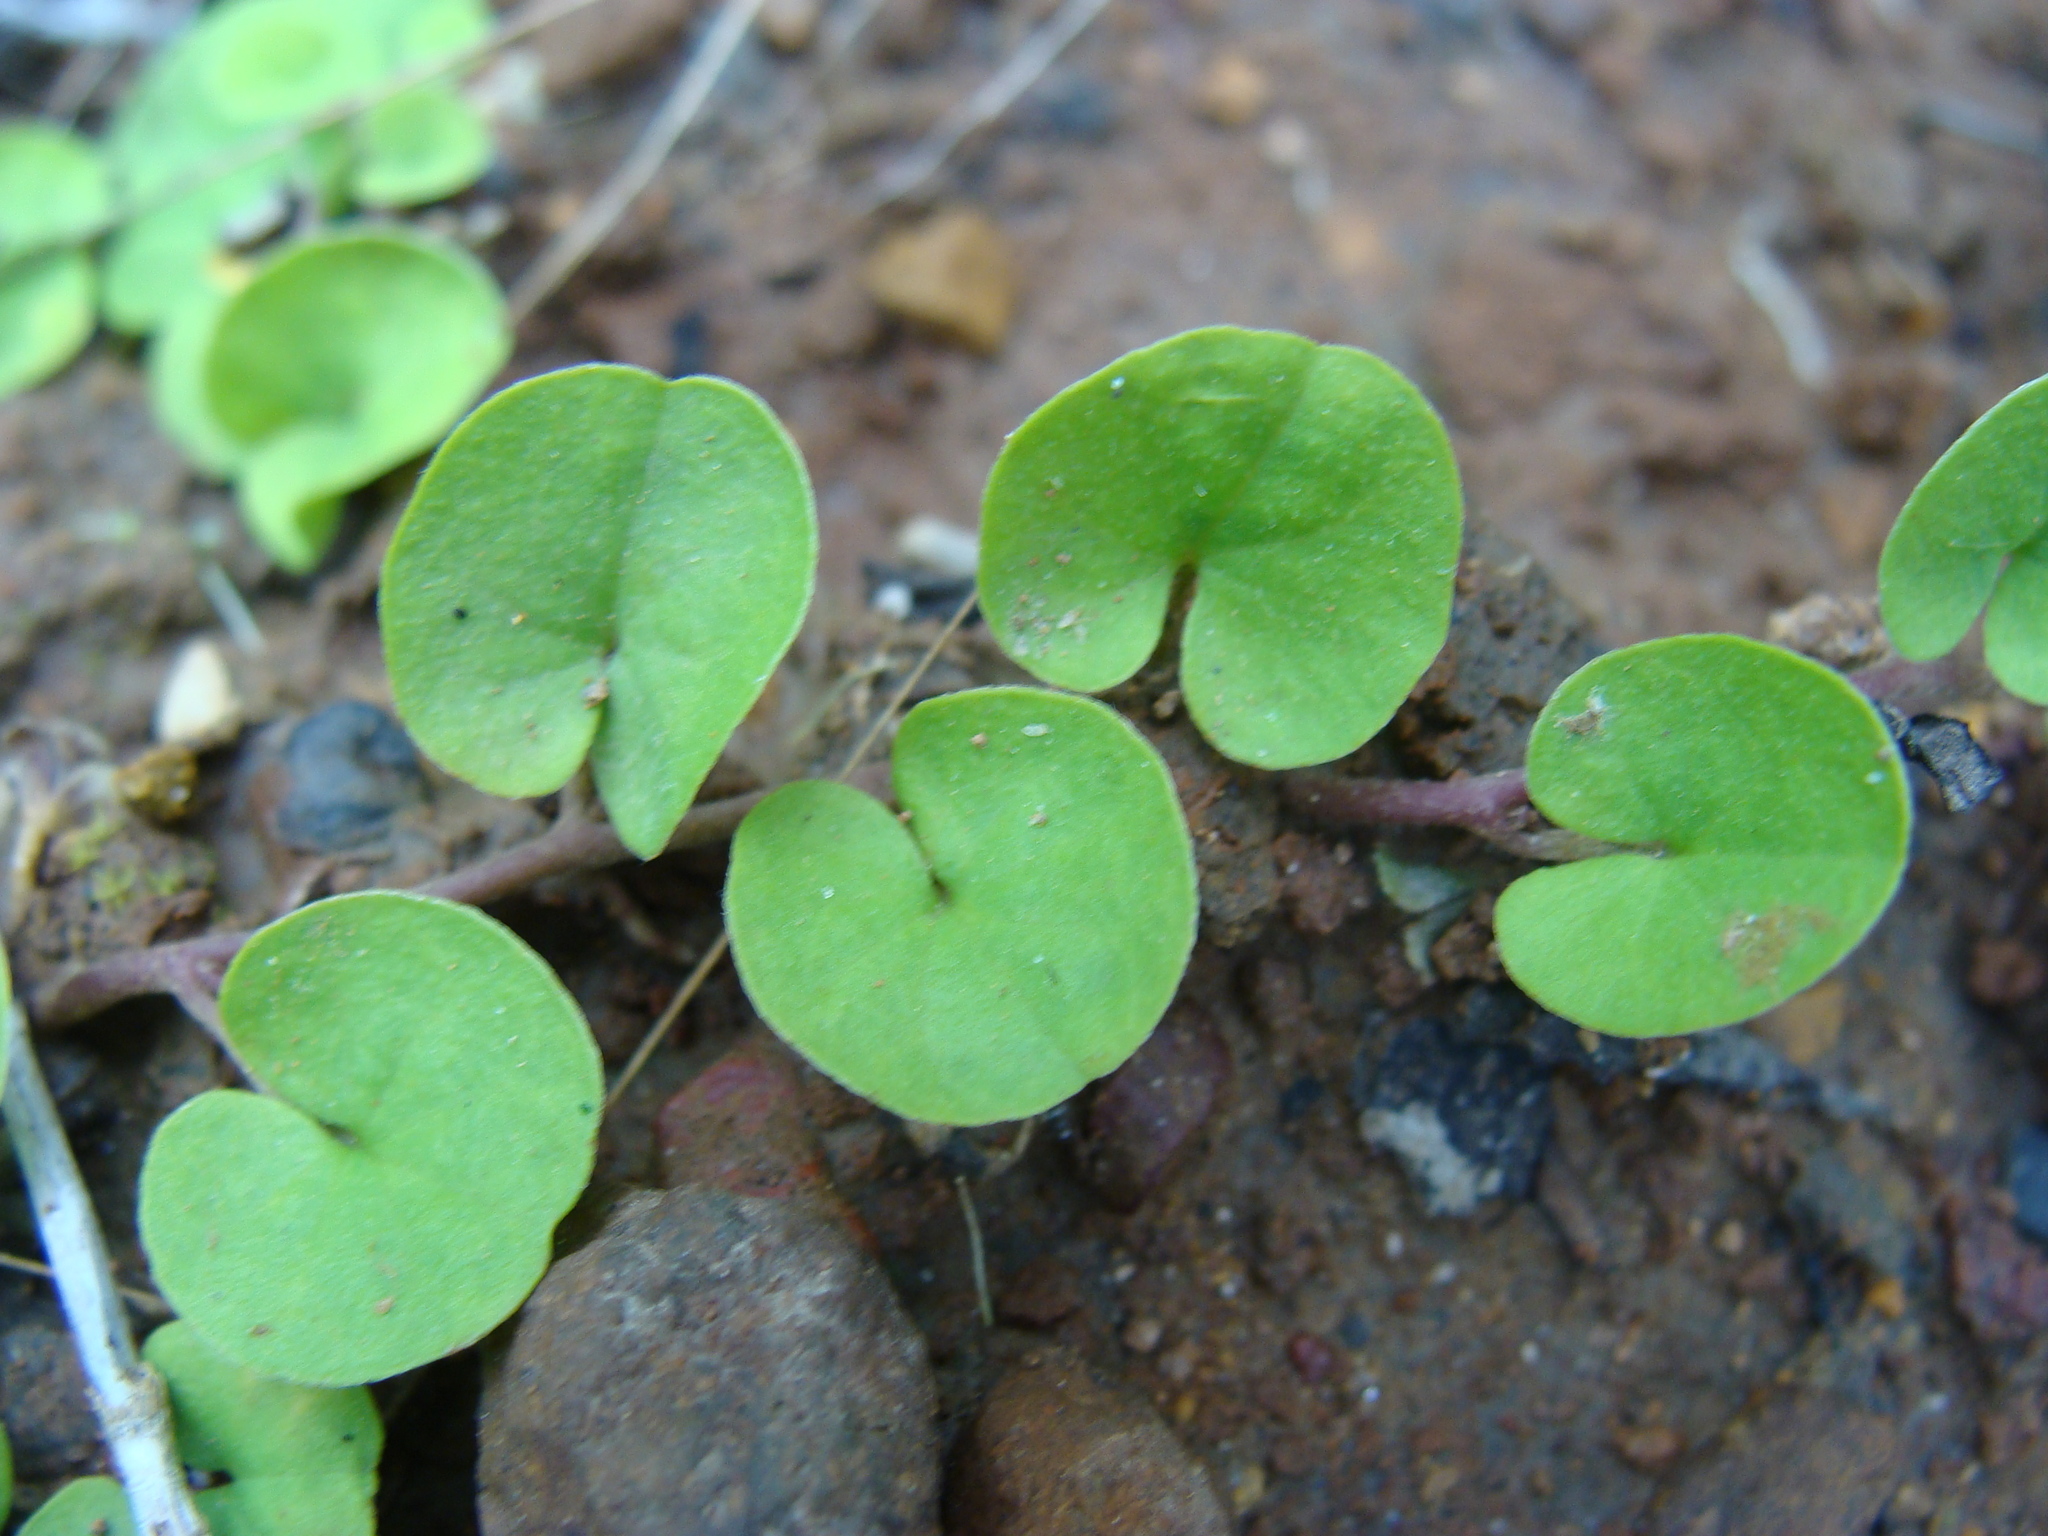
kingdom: Plantae
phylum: Tracheophyta
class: Magnoliopsida
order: Solanales
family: Convolvulaceae
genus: Dichondra
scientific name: Dichondra sericea
